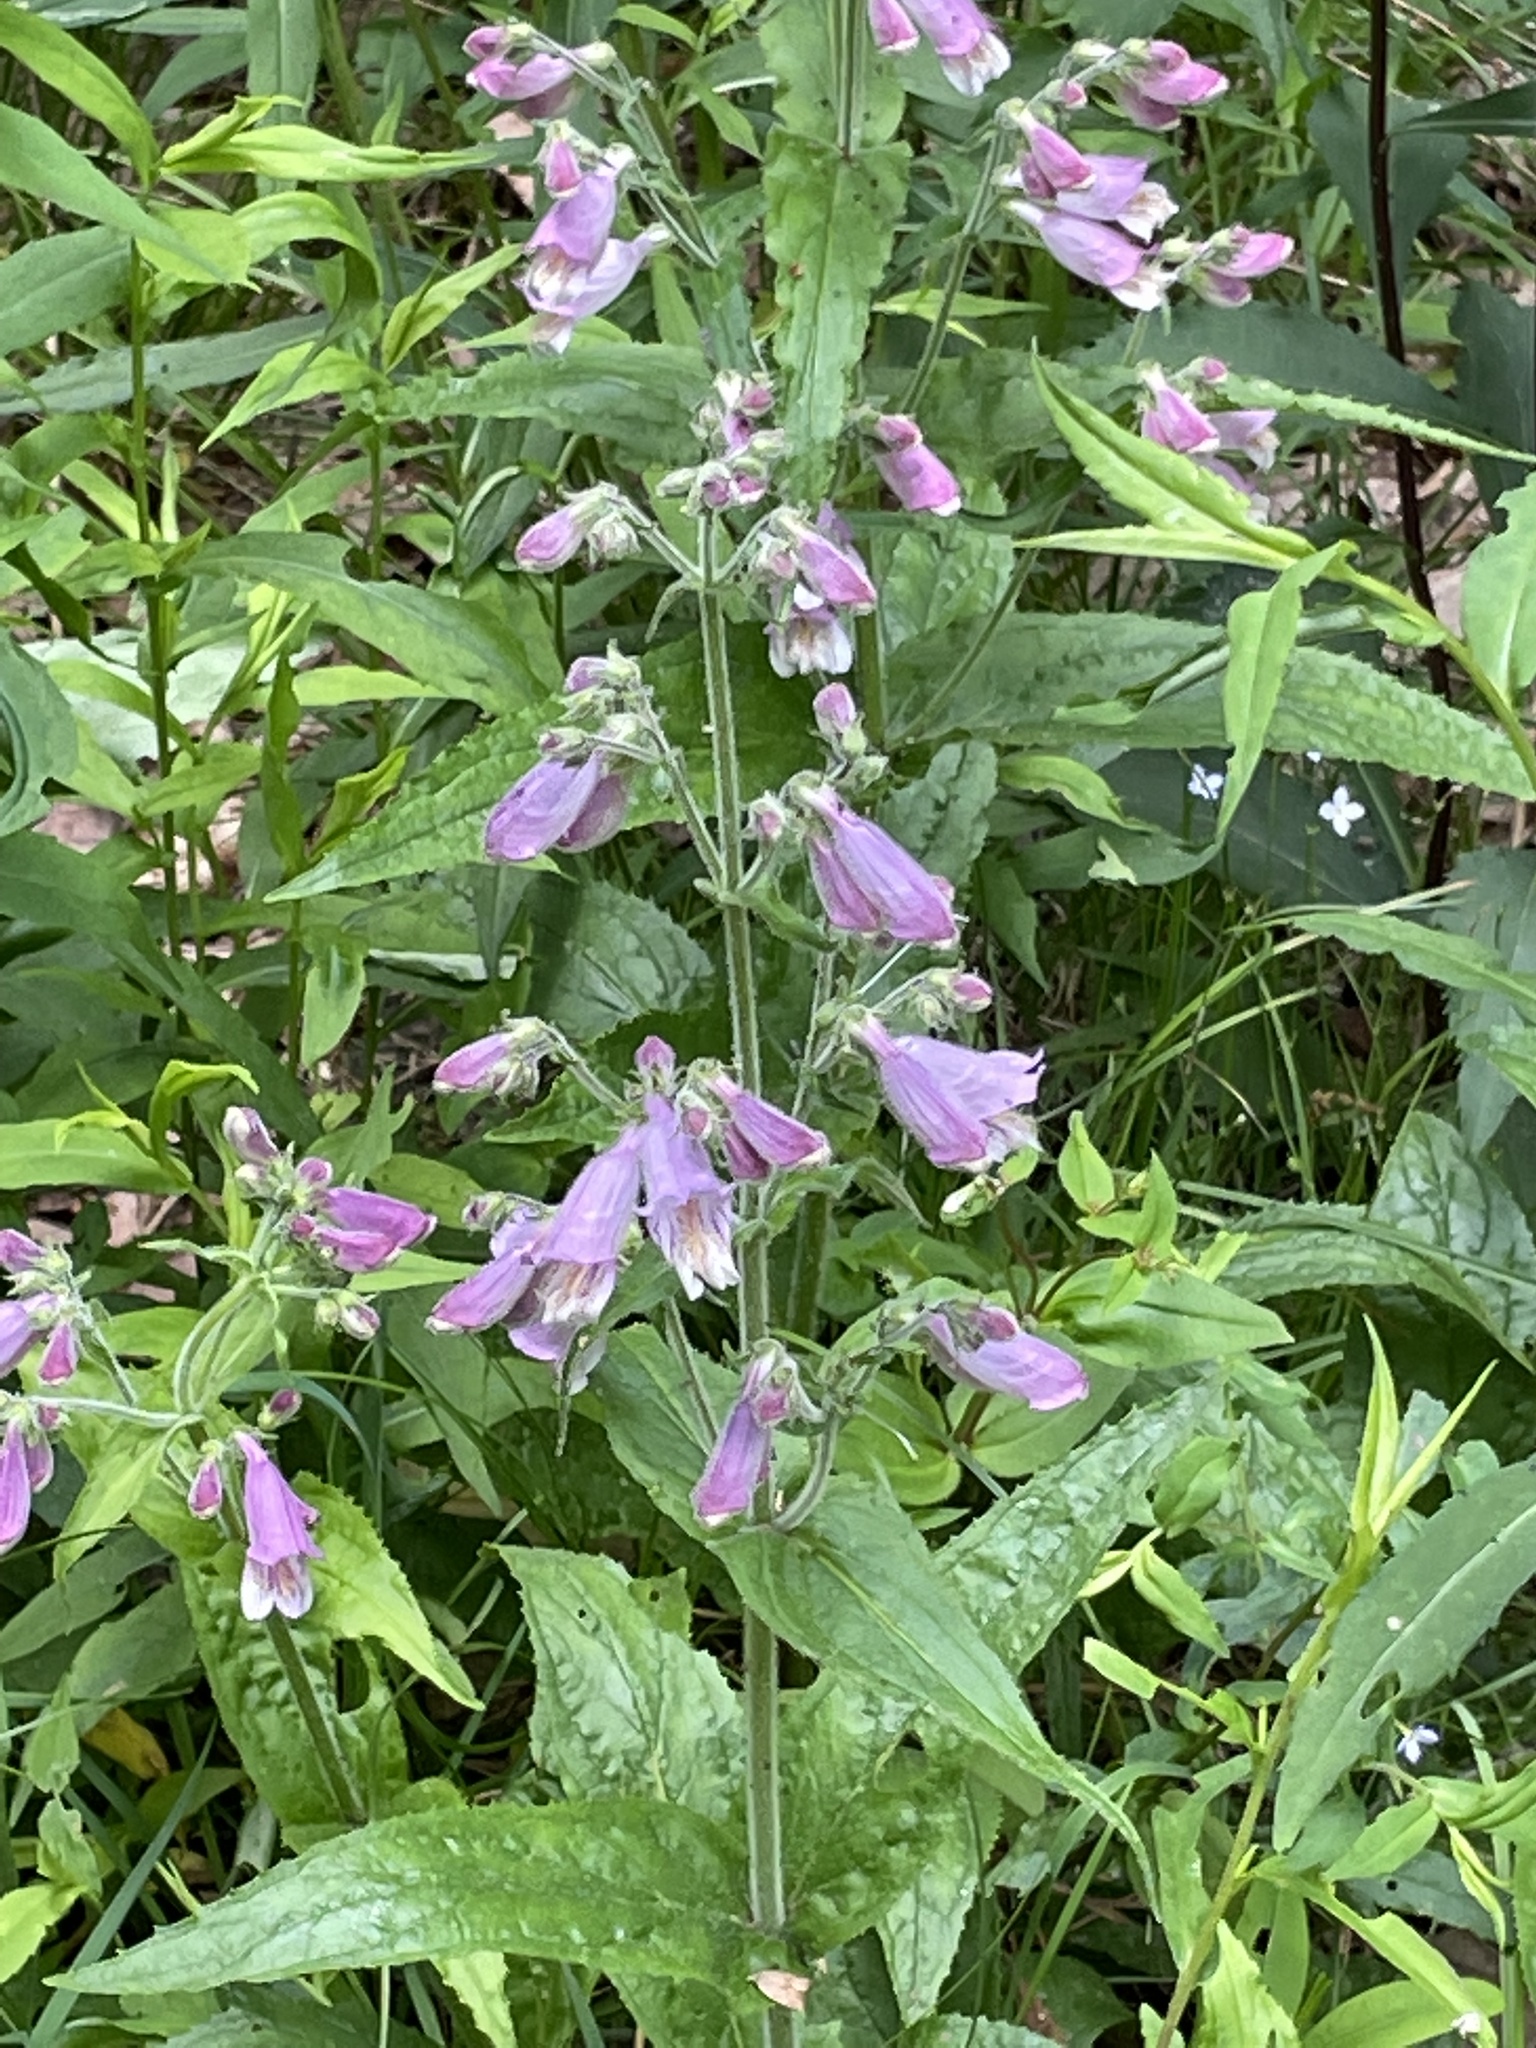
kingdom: Plantae
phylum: Tracheophyta
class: Magnoliopsida
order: Lamiales
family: Plantaginaceae
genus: Penstemon
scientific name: Penstemon smallii
